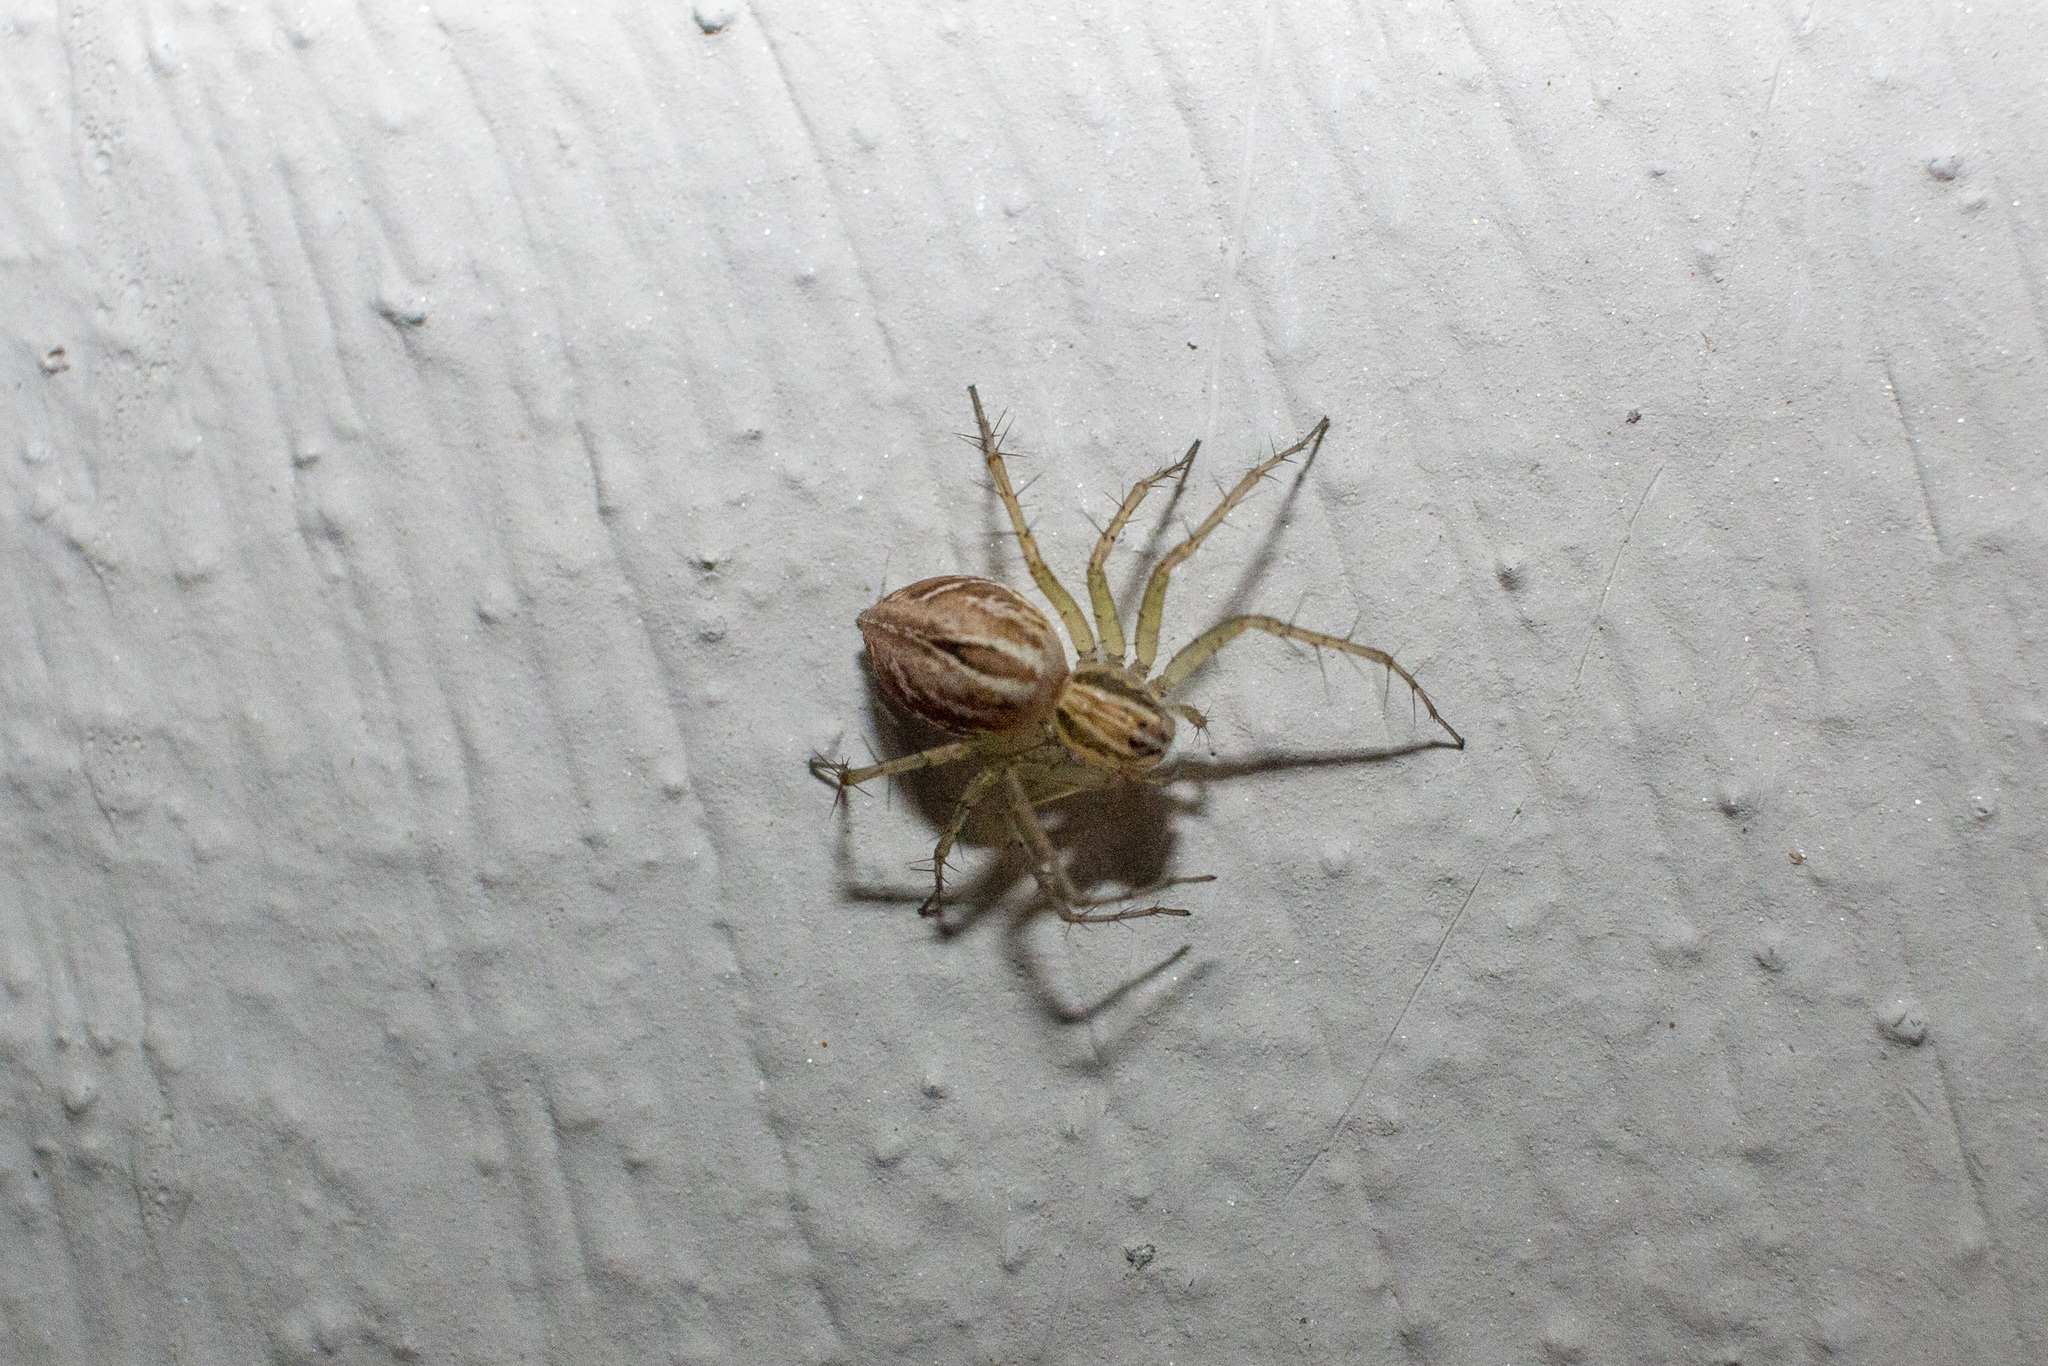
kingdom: Animalia
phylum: Arthropoda
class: Arachnida
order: Araneae
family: Oxyopidae
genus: Oxyopes
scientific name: Oxyopes salticus
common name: Lynx spiders
